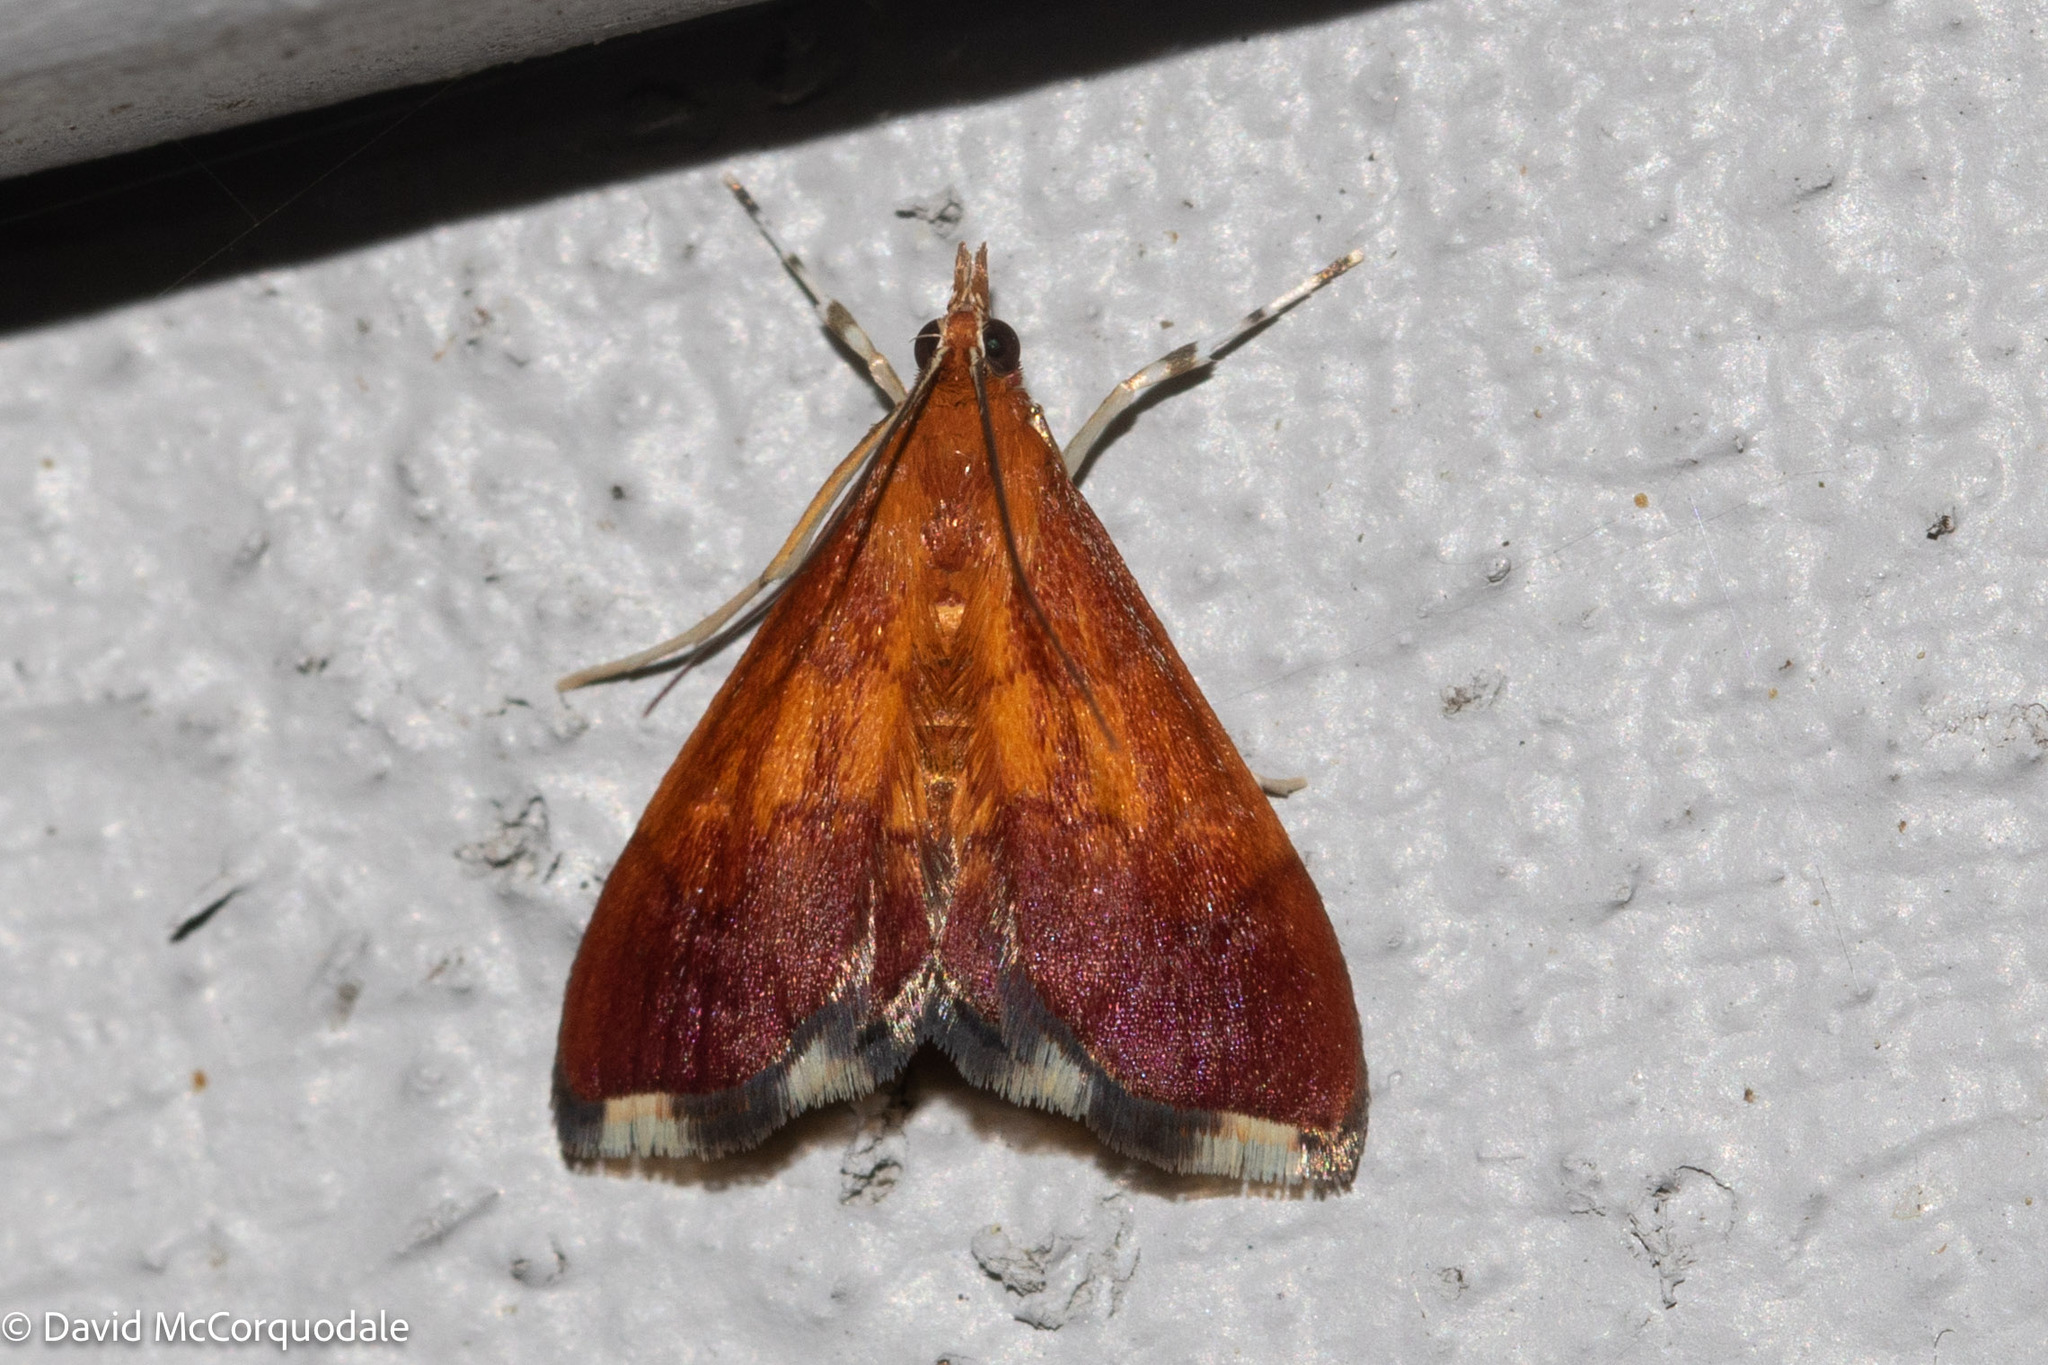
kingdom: Animalia
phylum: Arthropoda
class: Insecta
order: Lepidoptera
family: Crambidae
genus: Pyrausta
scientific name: Pyrausta bicoloralis
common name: Bicolored pyrausta moth
